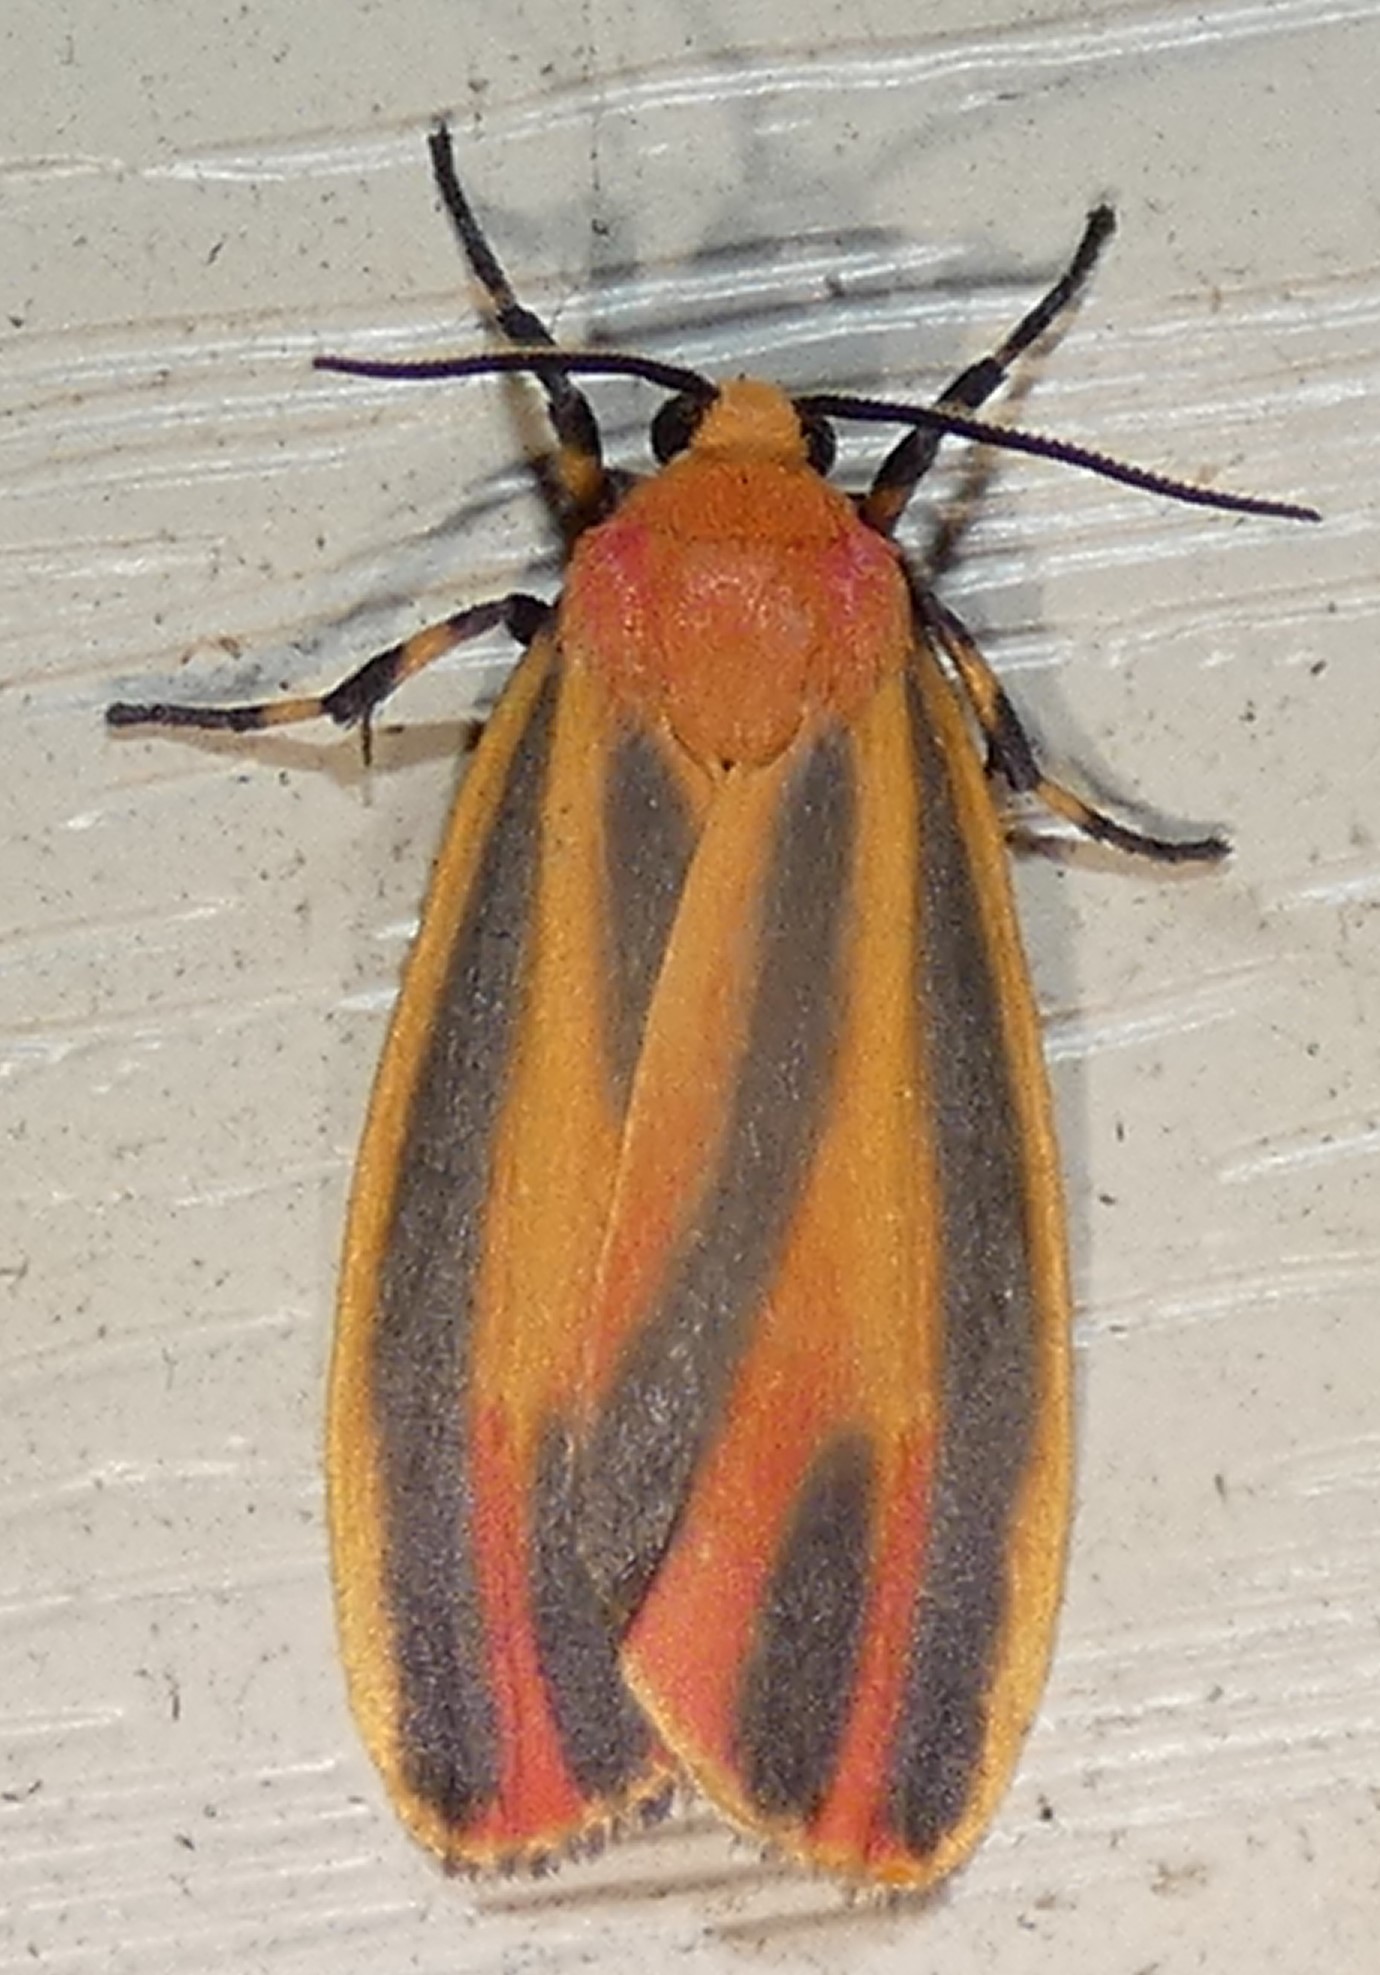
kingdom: Animalia
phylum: Arthropoda
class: Insecta
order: Lepidoptera
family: Erebidae
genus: Hypoprepia
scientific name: Hypoprepia fucosa
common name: Painted lichen moth
